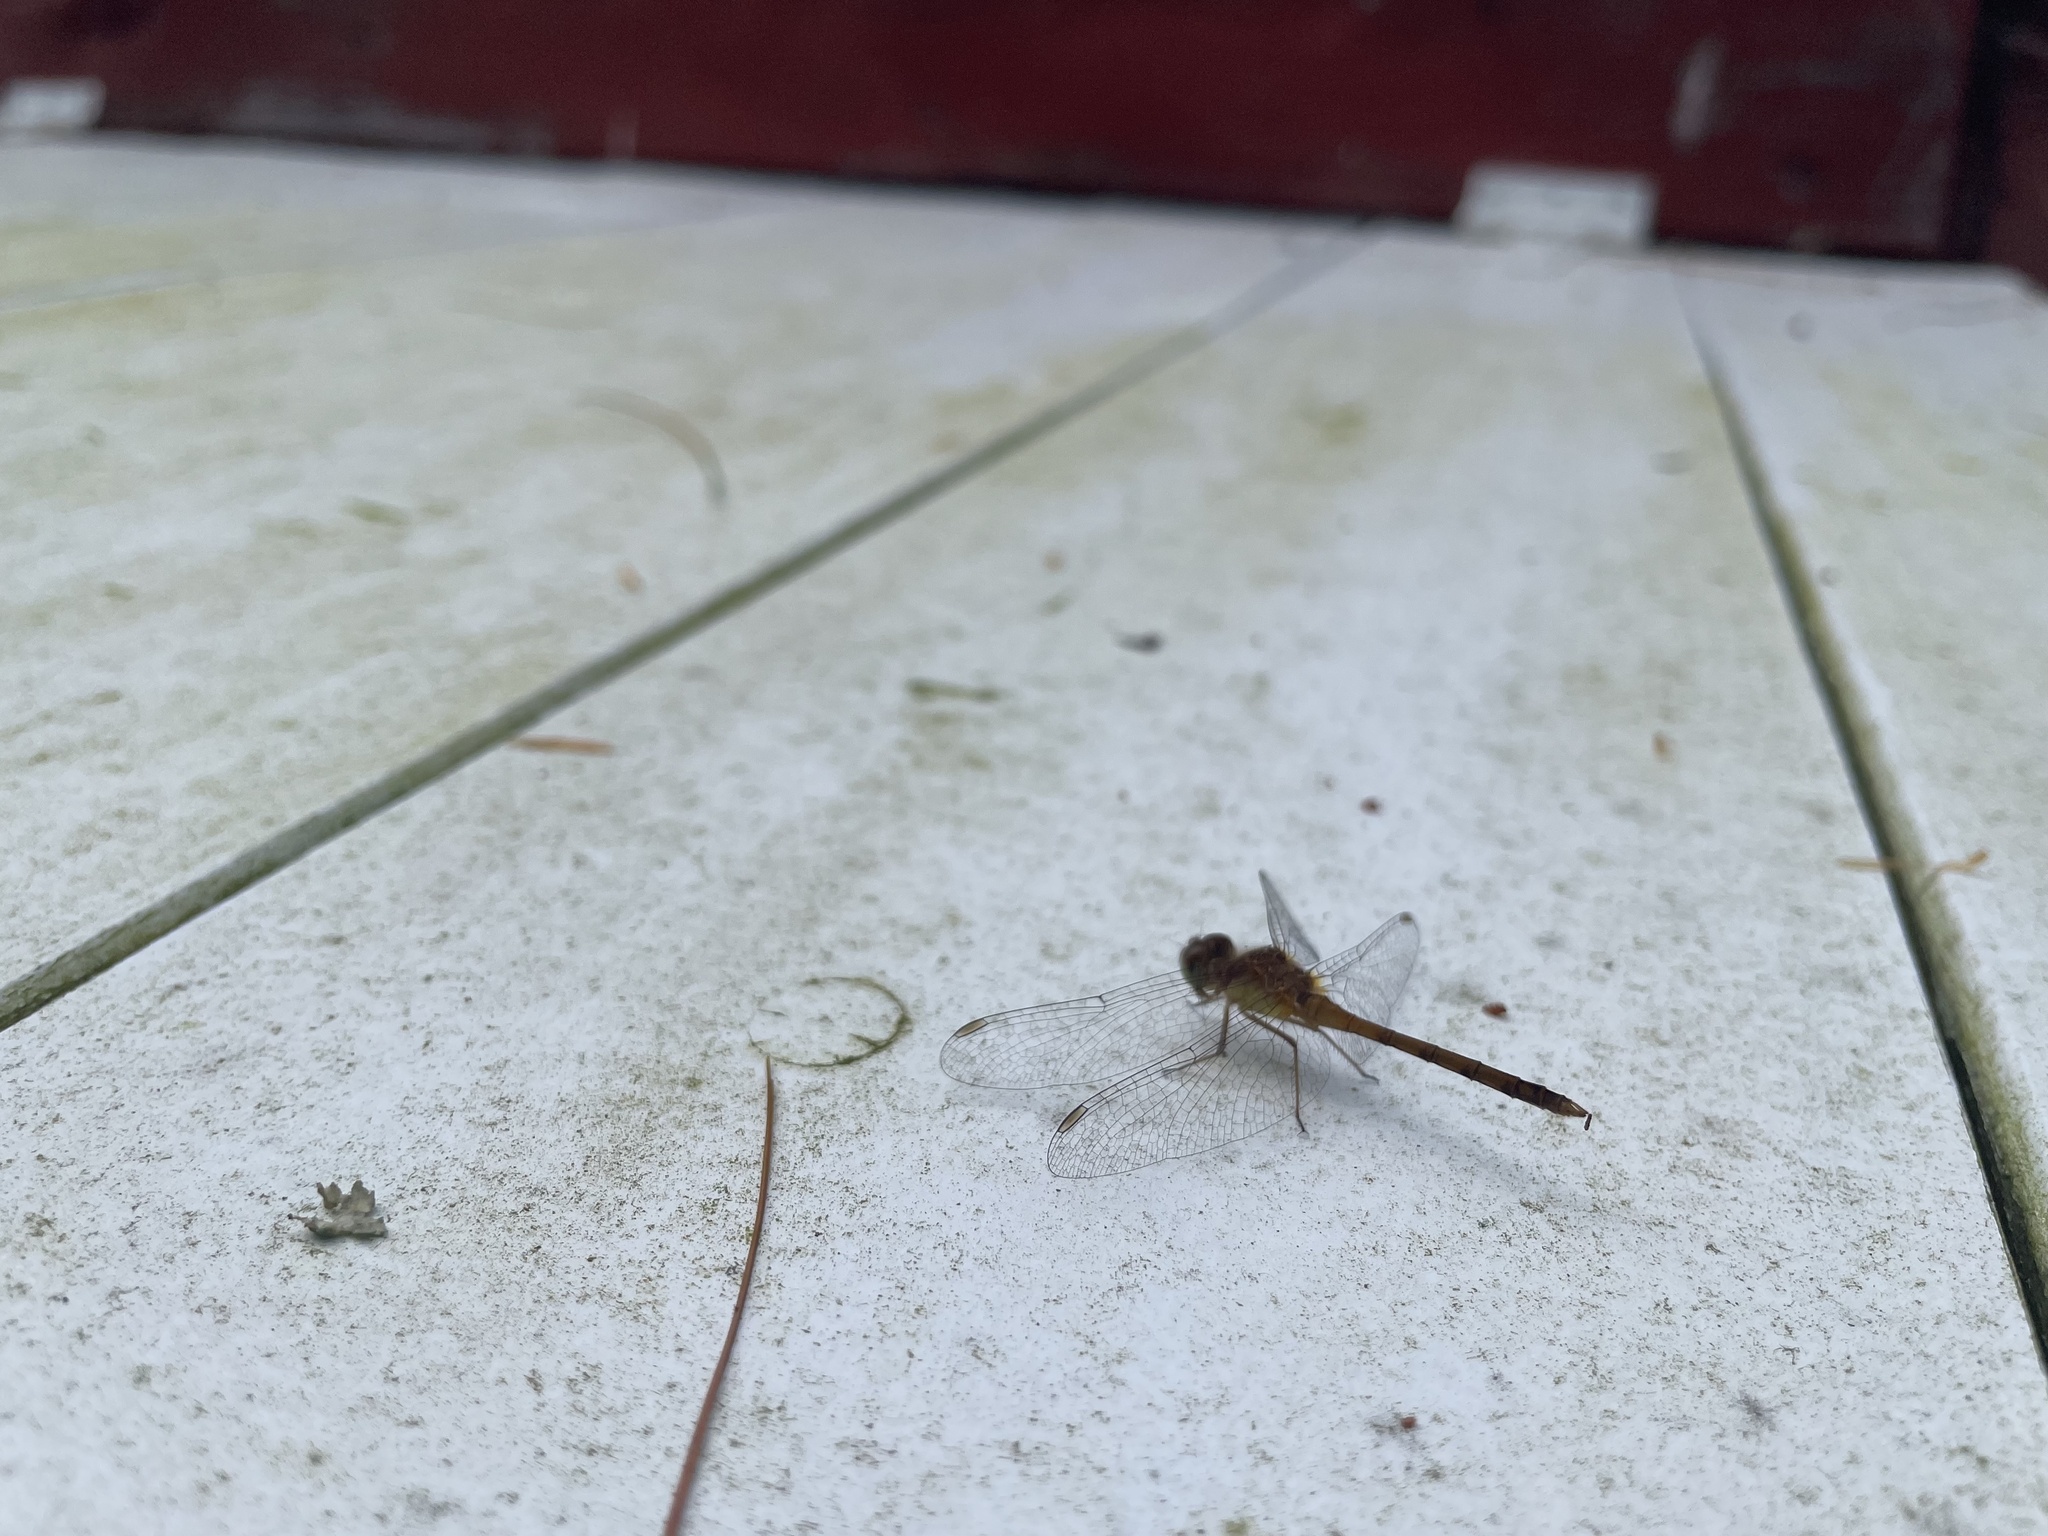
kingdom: Animalia
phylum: Arthropoda
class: Insecta
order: Odonata
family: Libellulidae
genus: Sympetrum
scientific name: Sympetrum vicinum
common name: Autumn meadowhawk
